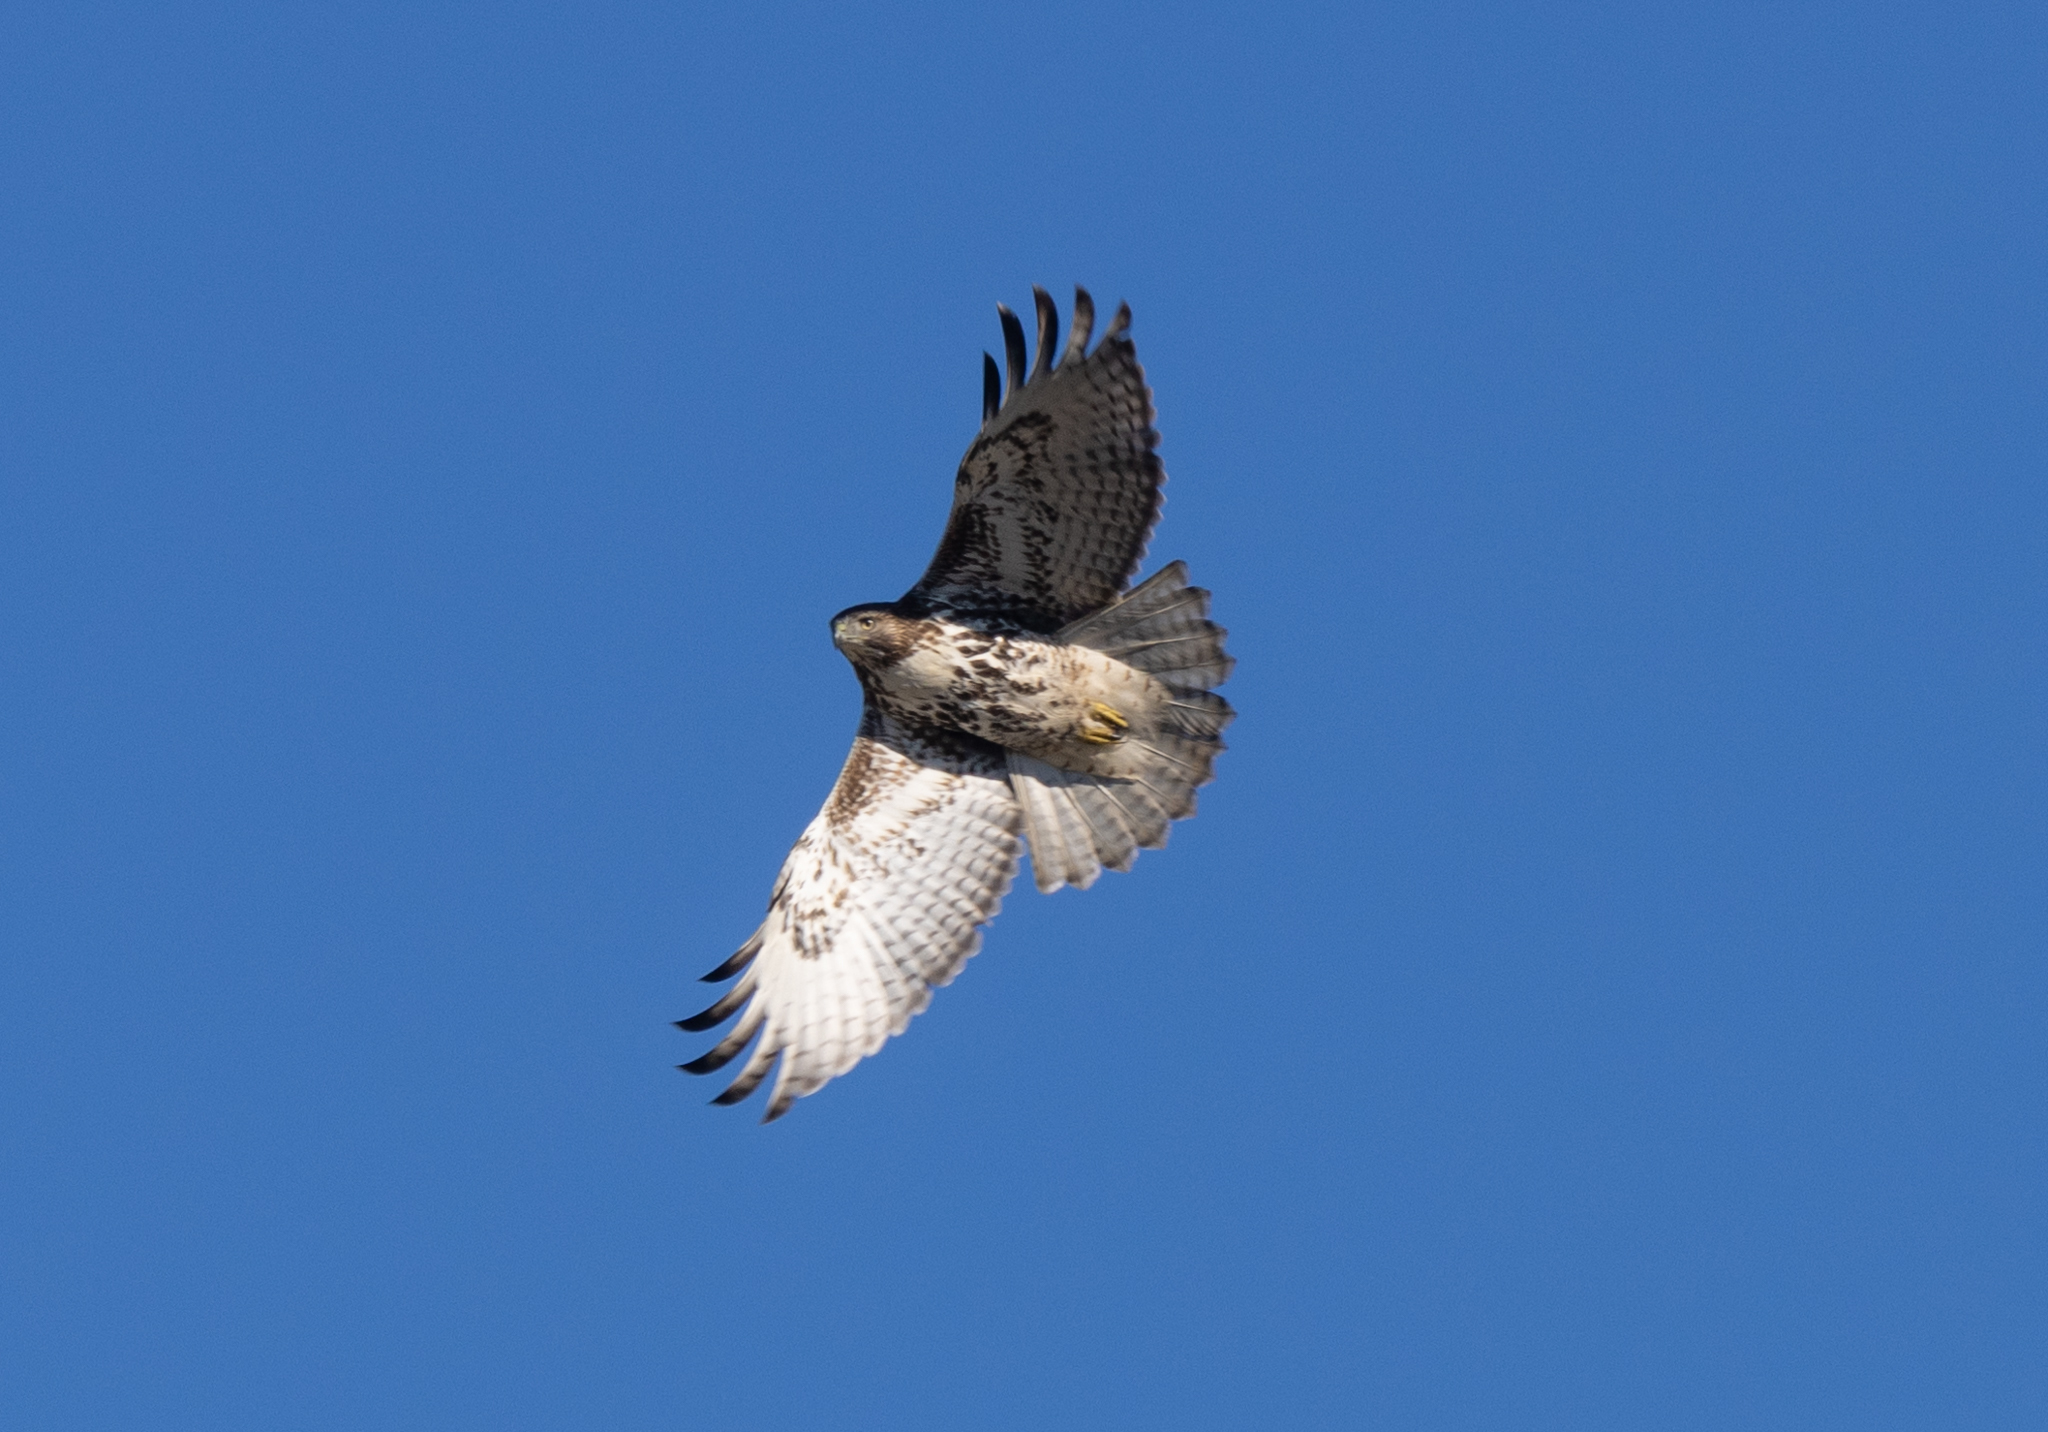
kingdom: Animalia
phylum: Chordata
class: Aves
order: Accipitriformes
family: Accipitridae
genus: Buteo
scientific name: Buteo jamaicensis
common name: Red-tailed hawk
